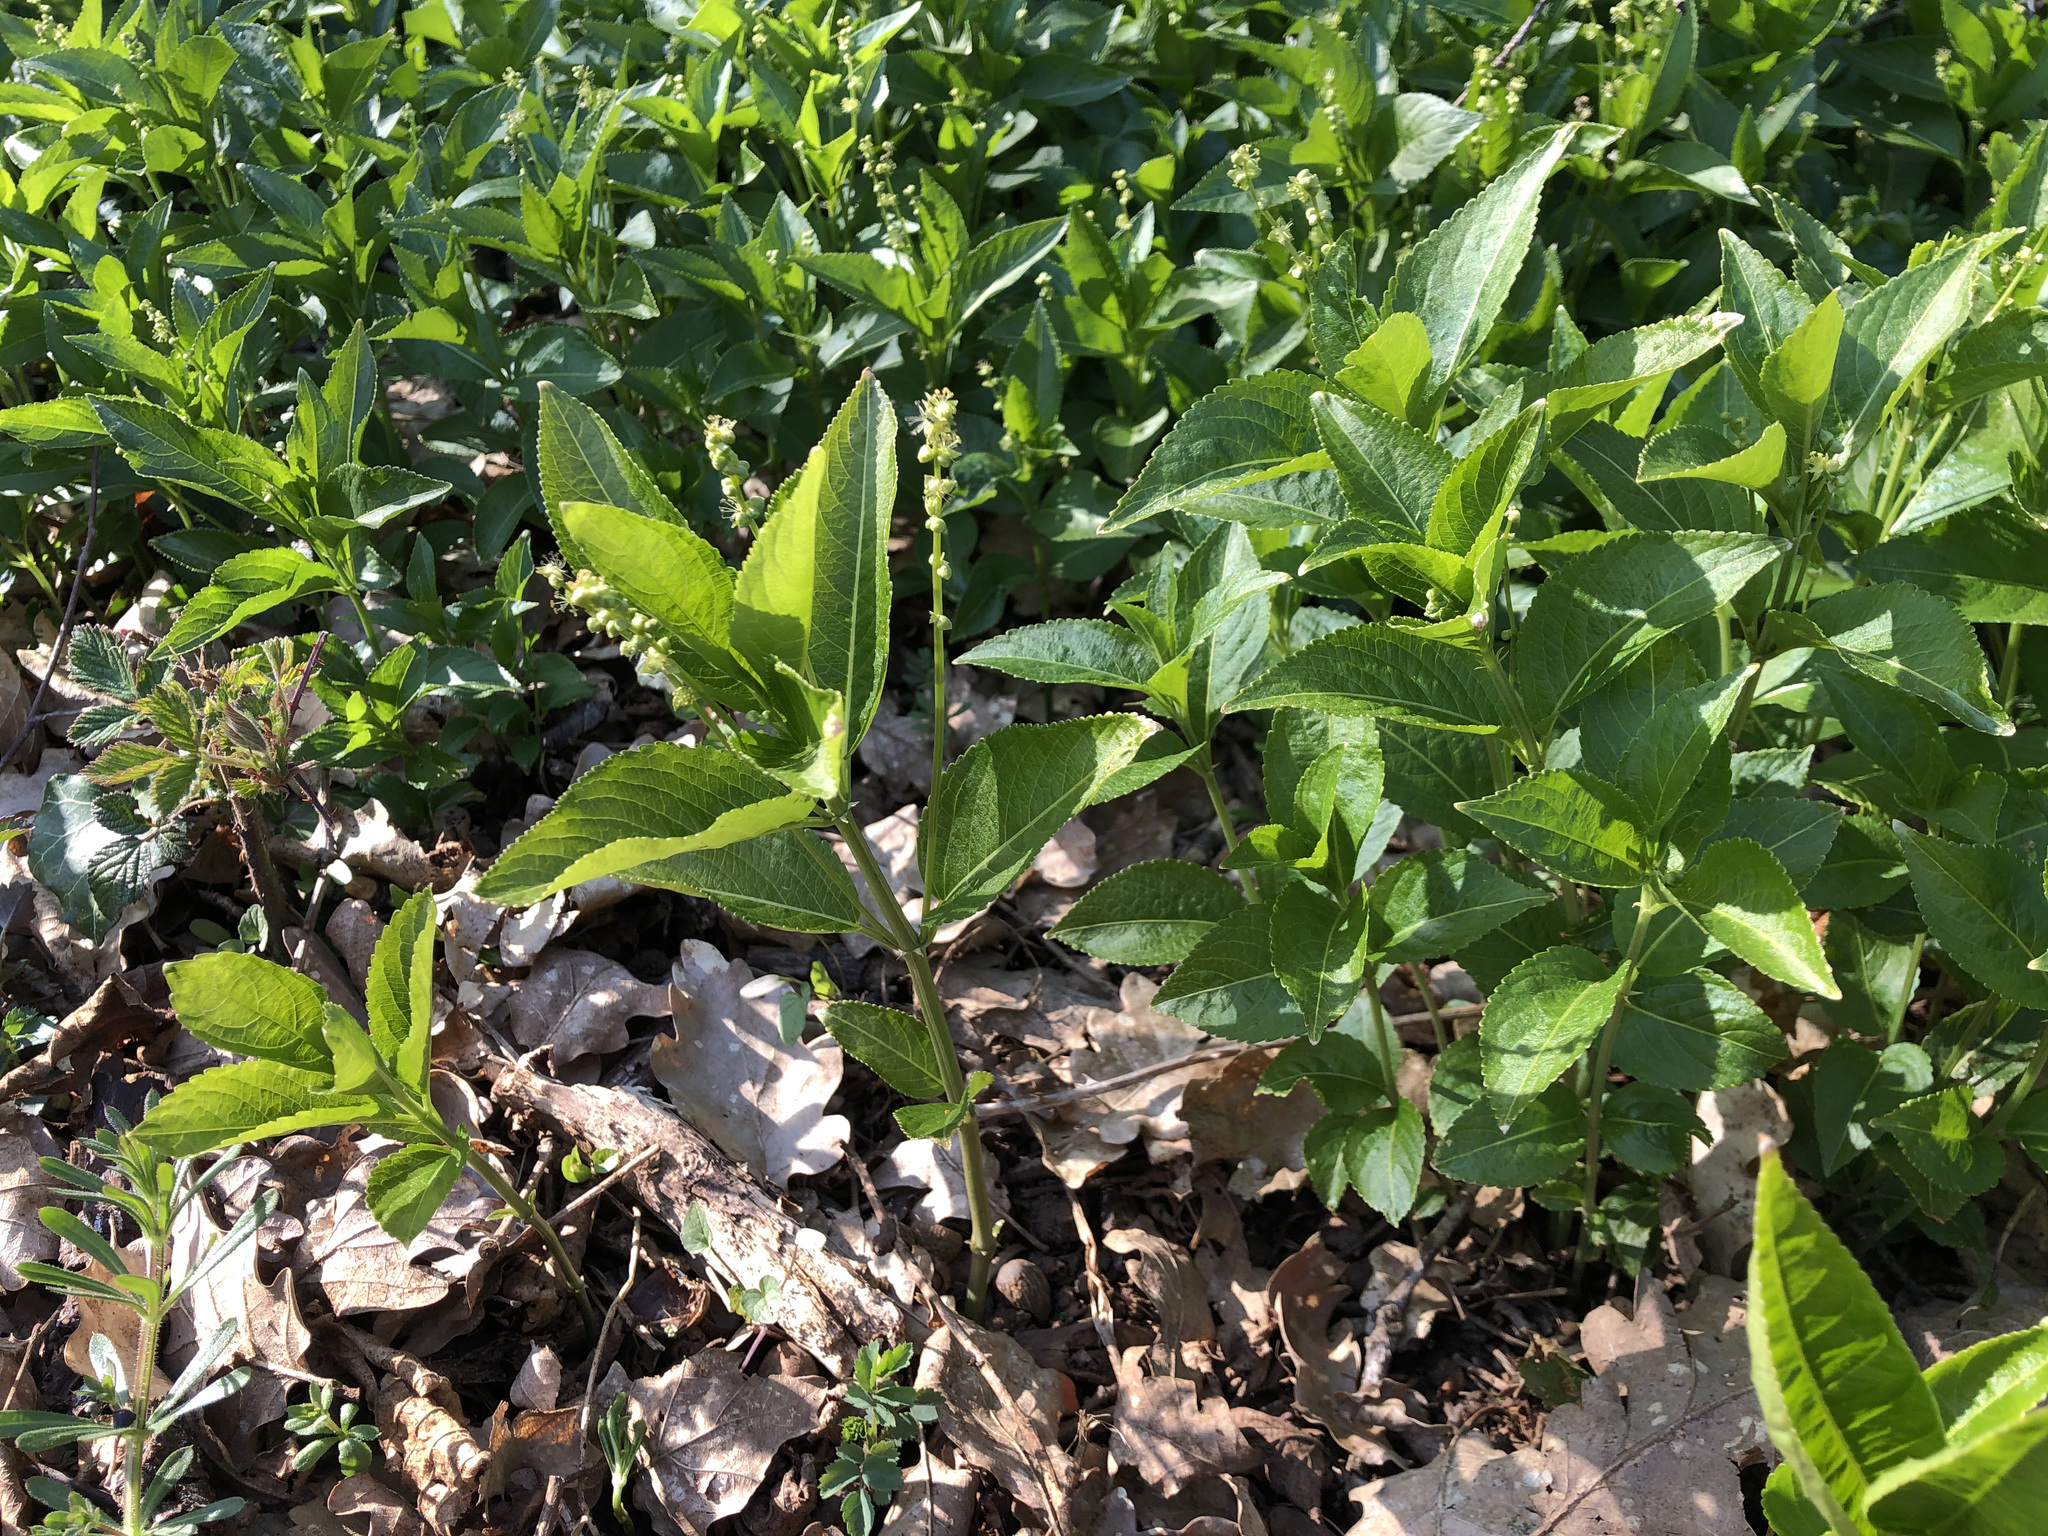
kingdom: Plantae
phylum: Tracheophyta
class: Magnoliopsida
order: Malpighiales
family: Euphorbiaceae
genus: Mercurialis
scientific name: Mercurialis perennis
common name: Dog mercury
